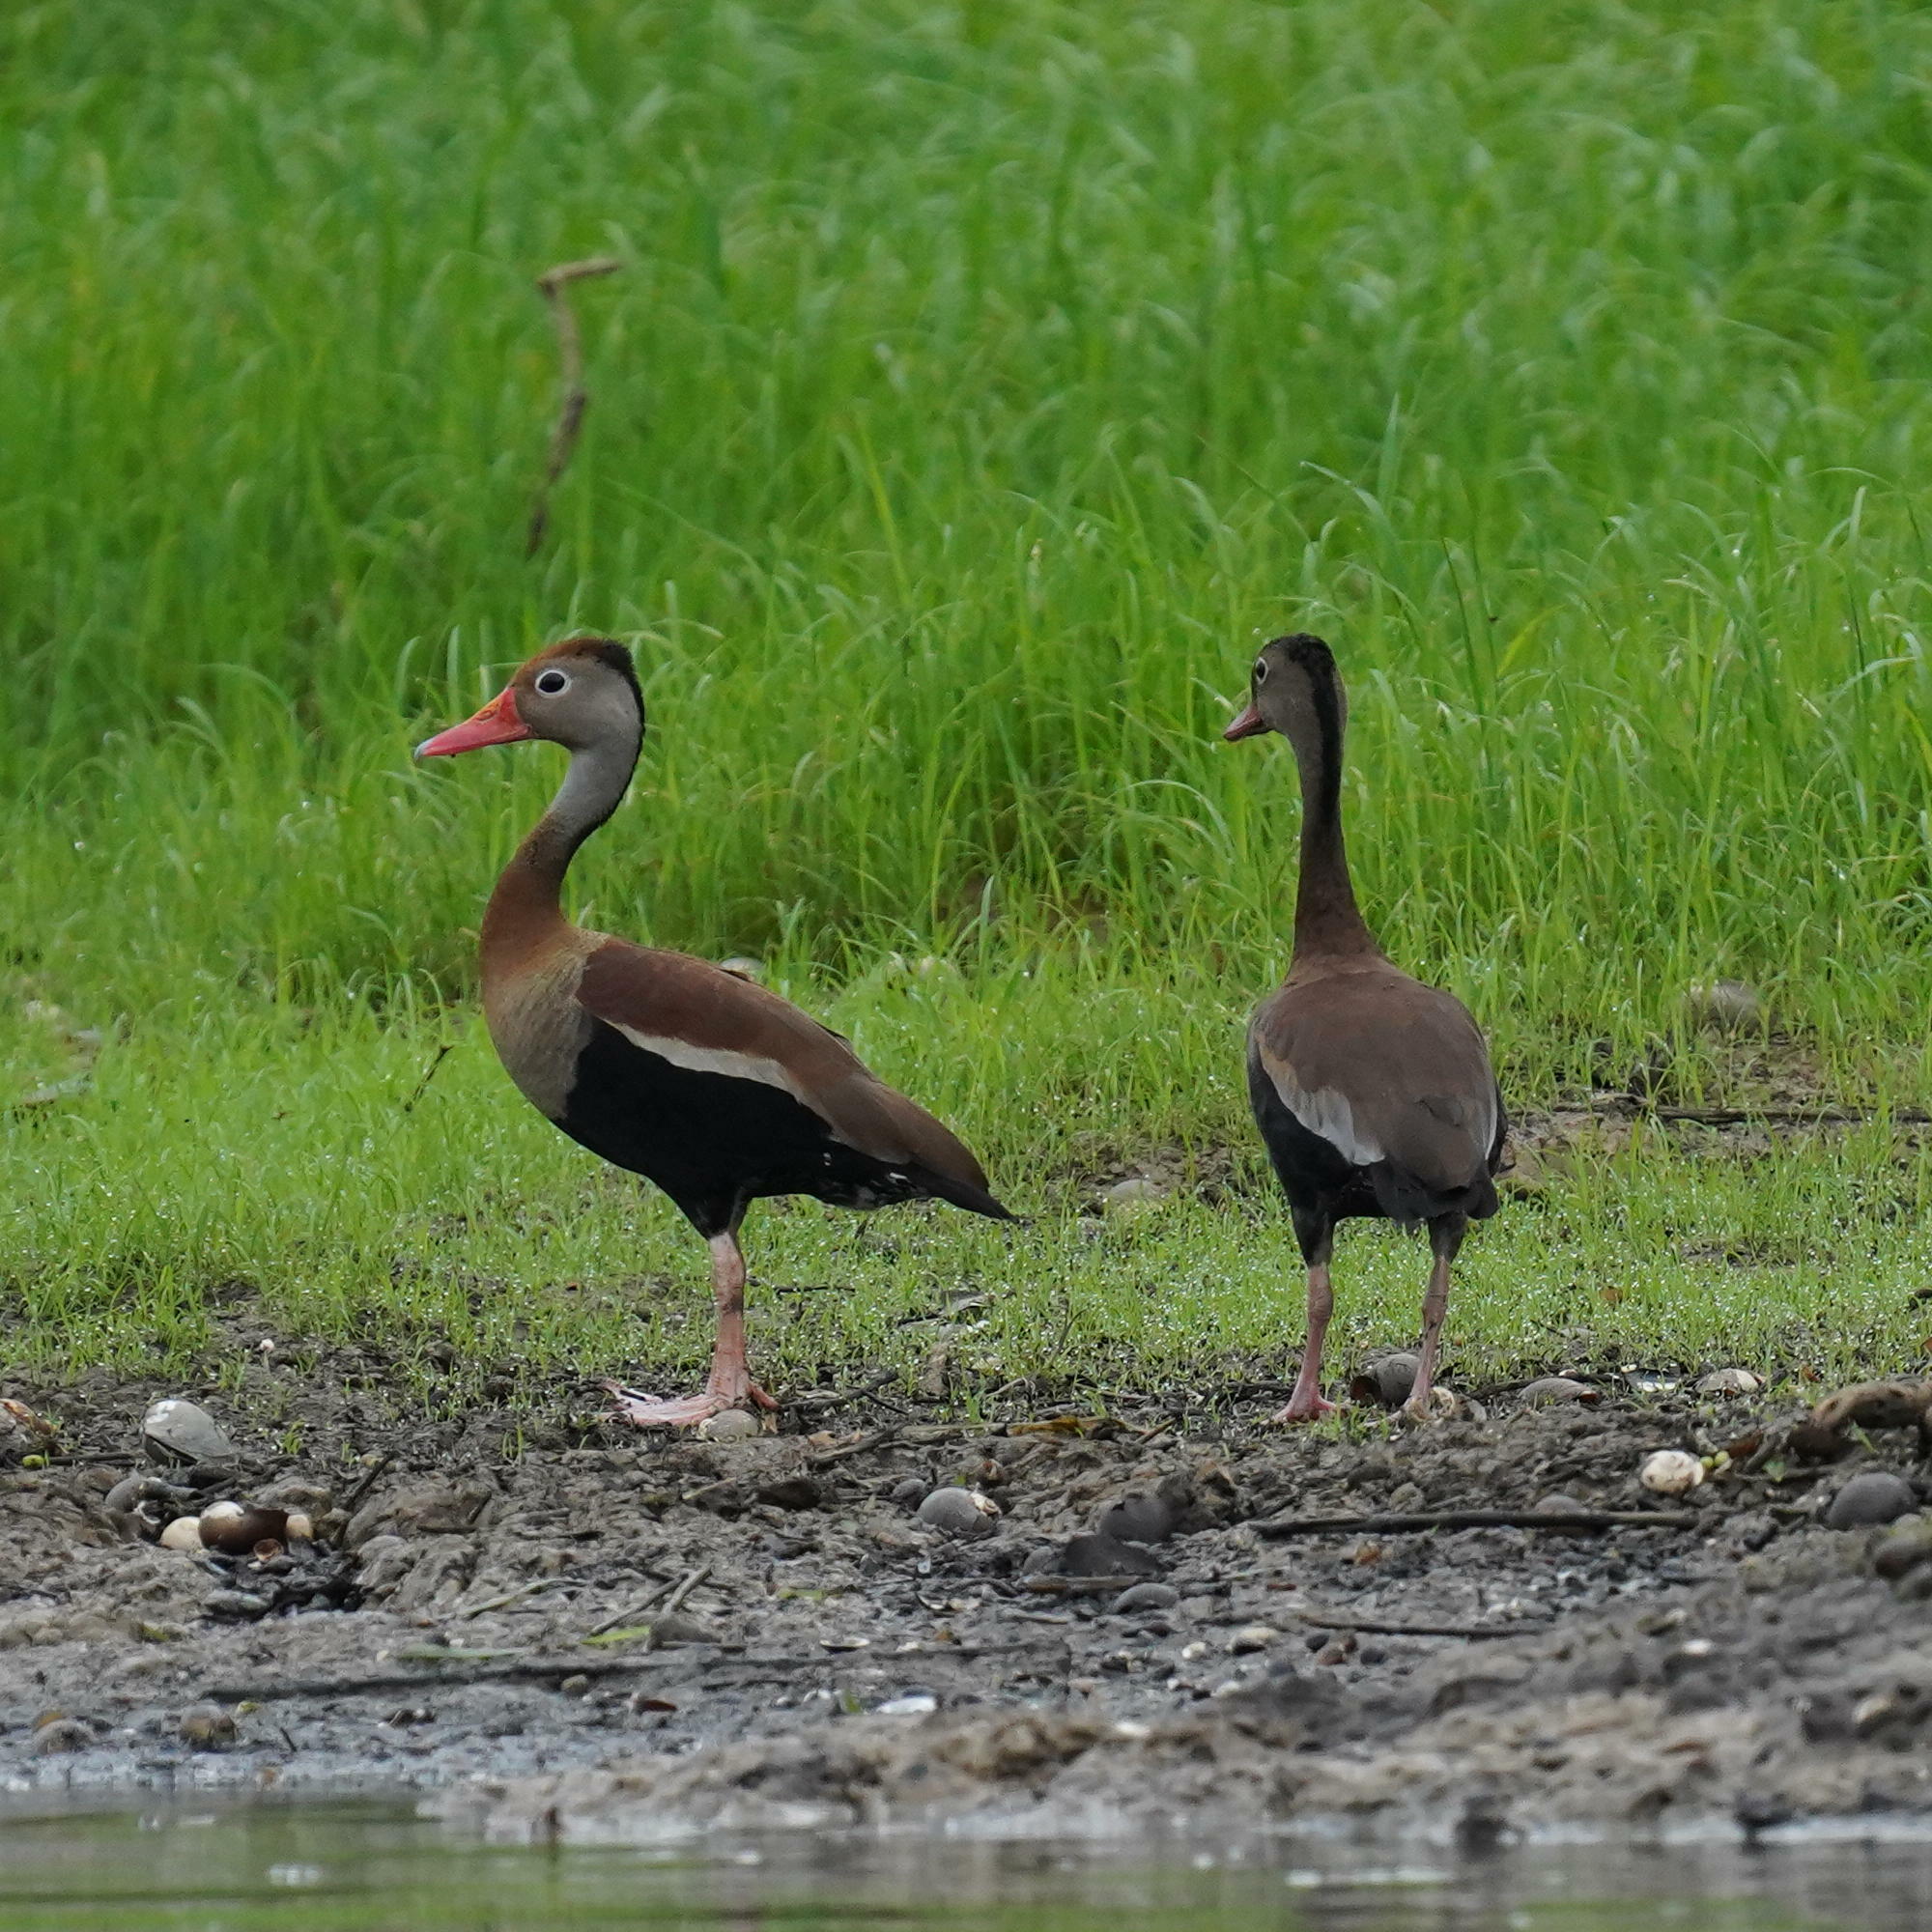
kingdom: Animalia
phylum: Chordata
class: Aves
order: Anseriformes
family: Anatidae
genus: Dendrocygna
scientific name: Dendrocygna autumnalis
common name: Black-bellied whistling duck
